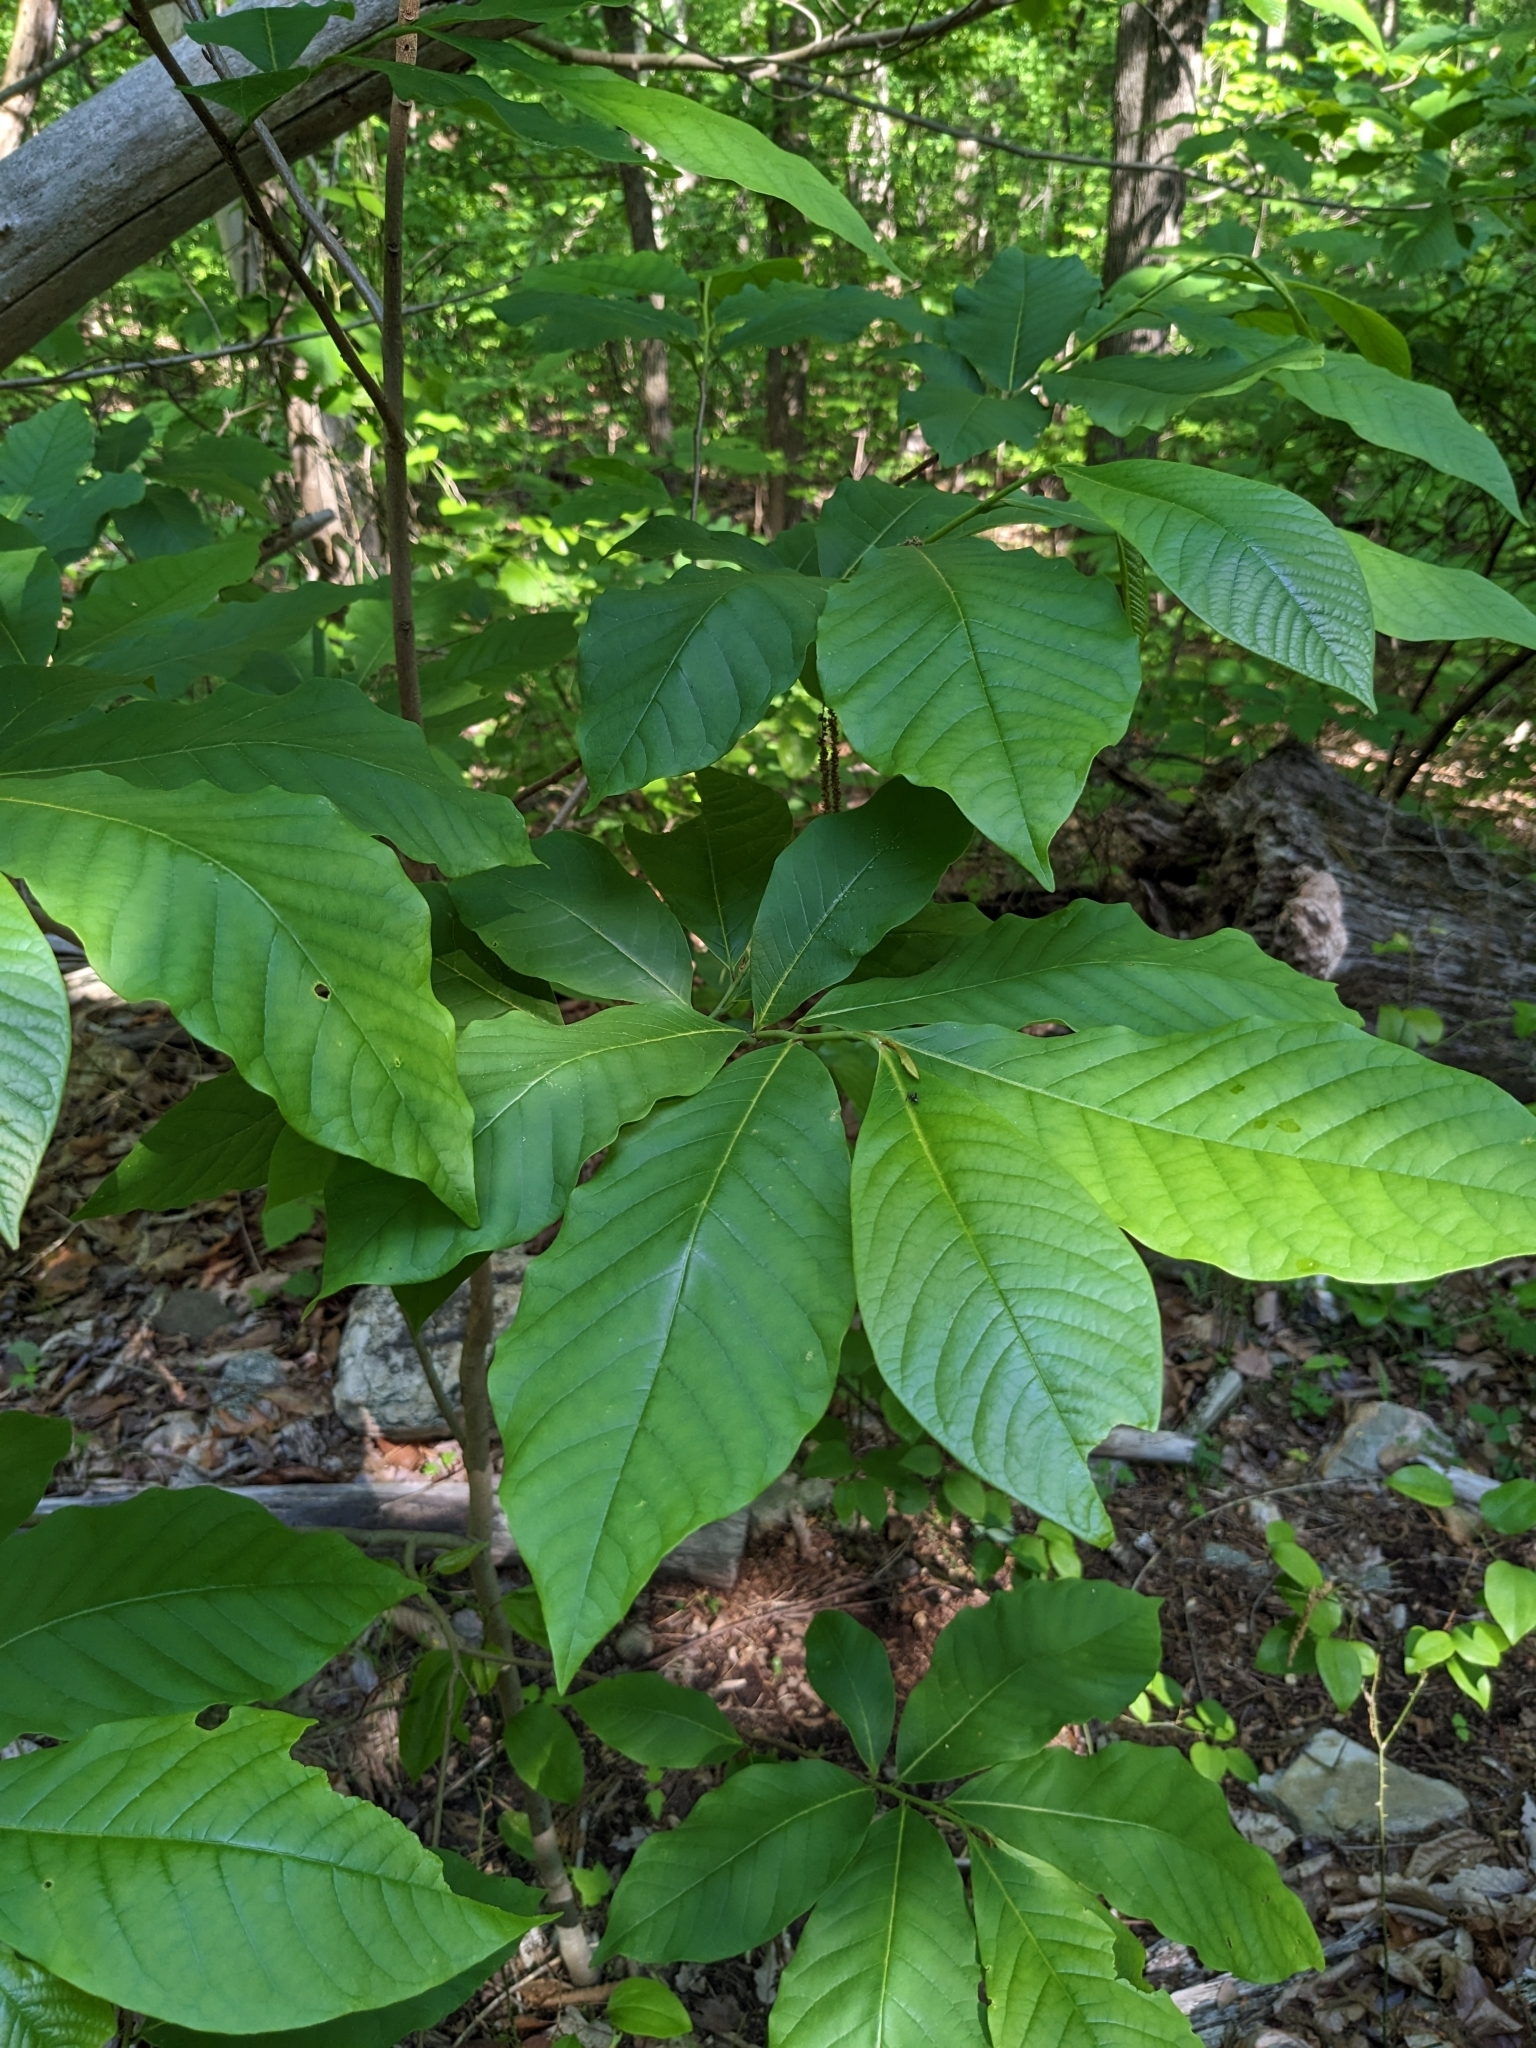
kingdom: Plantae
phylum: Tracheophyta
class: Magnoliopsida
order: Magnoliales
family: Annonaceae
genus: Asimina
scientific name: Asimina triloba
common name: Dog-banana
